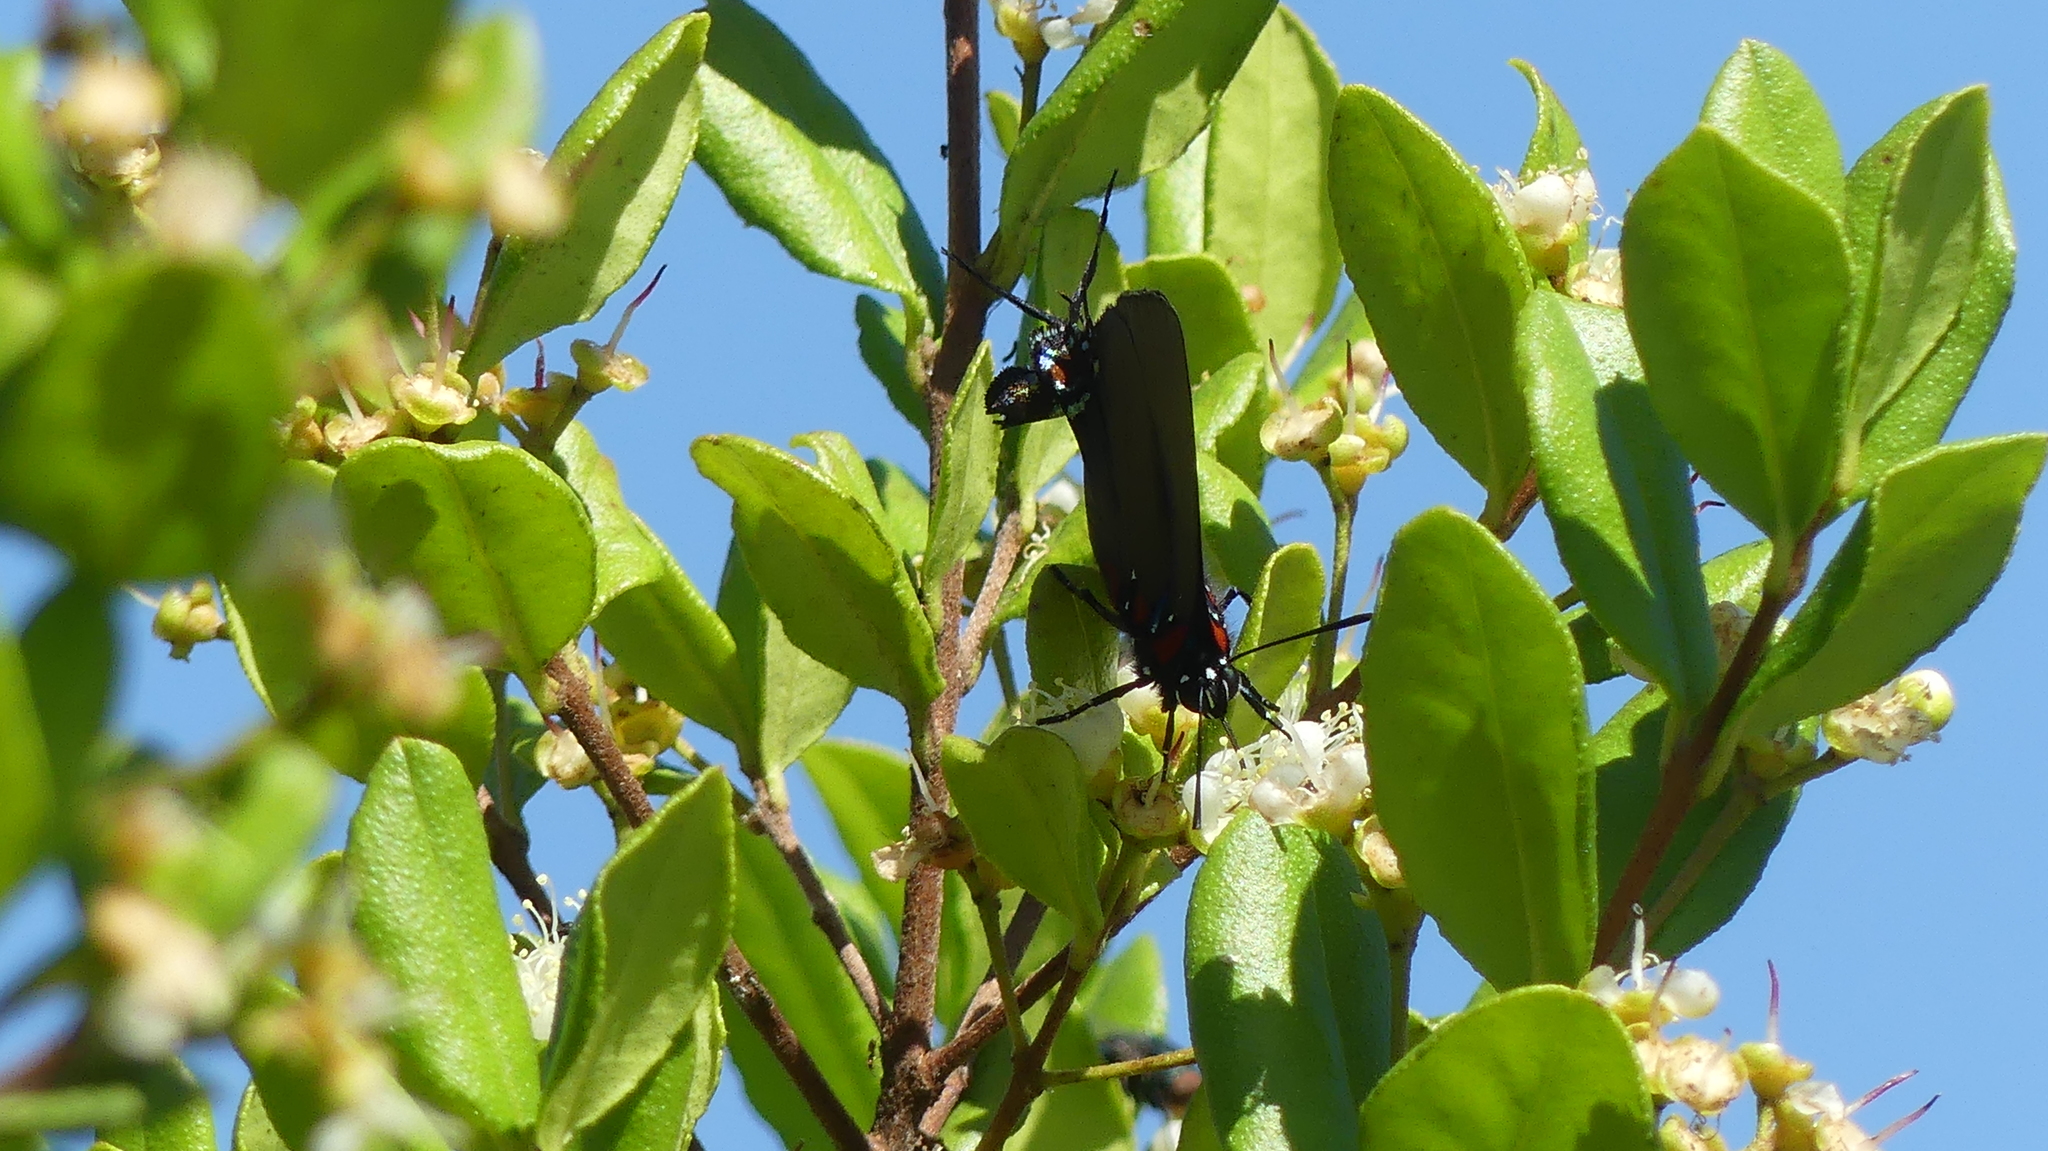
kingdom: Animalia
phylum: Arthropoda
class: Insecta
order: Lepidoptera
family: Lycaenidae
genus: Atlides
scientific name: Atlides halesus
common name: Great purple hairstreak
